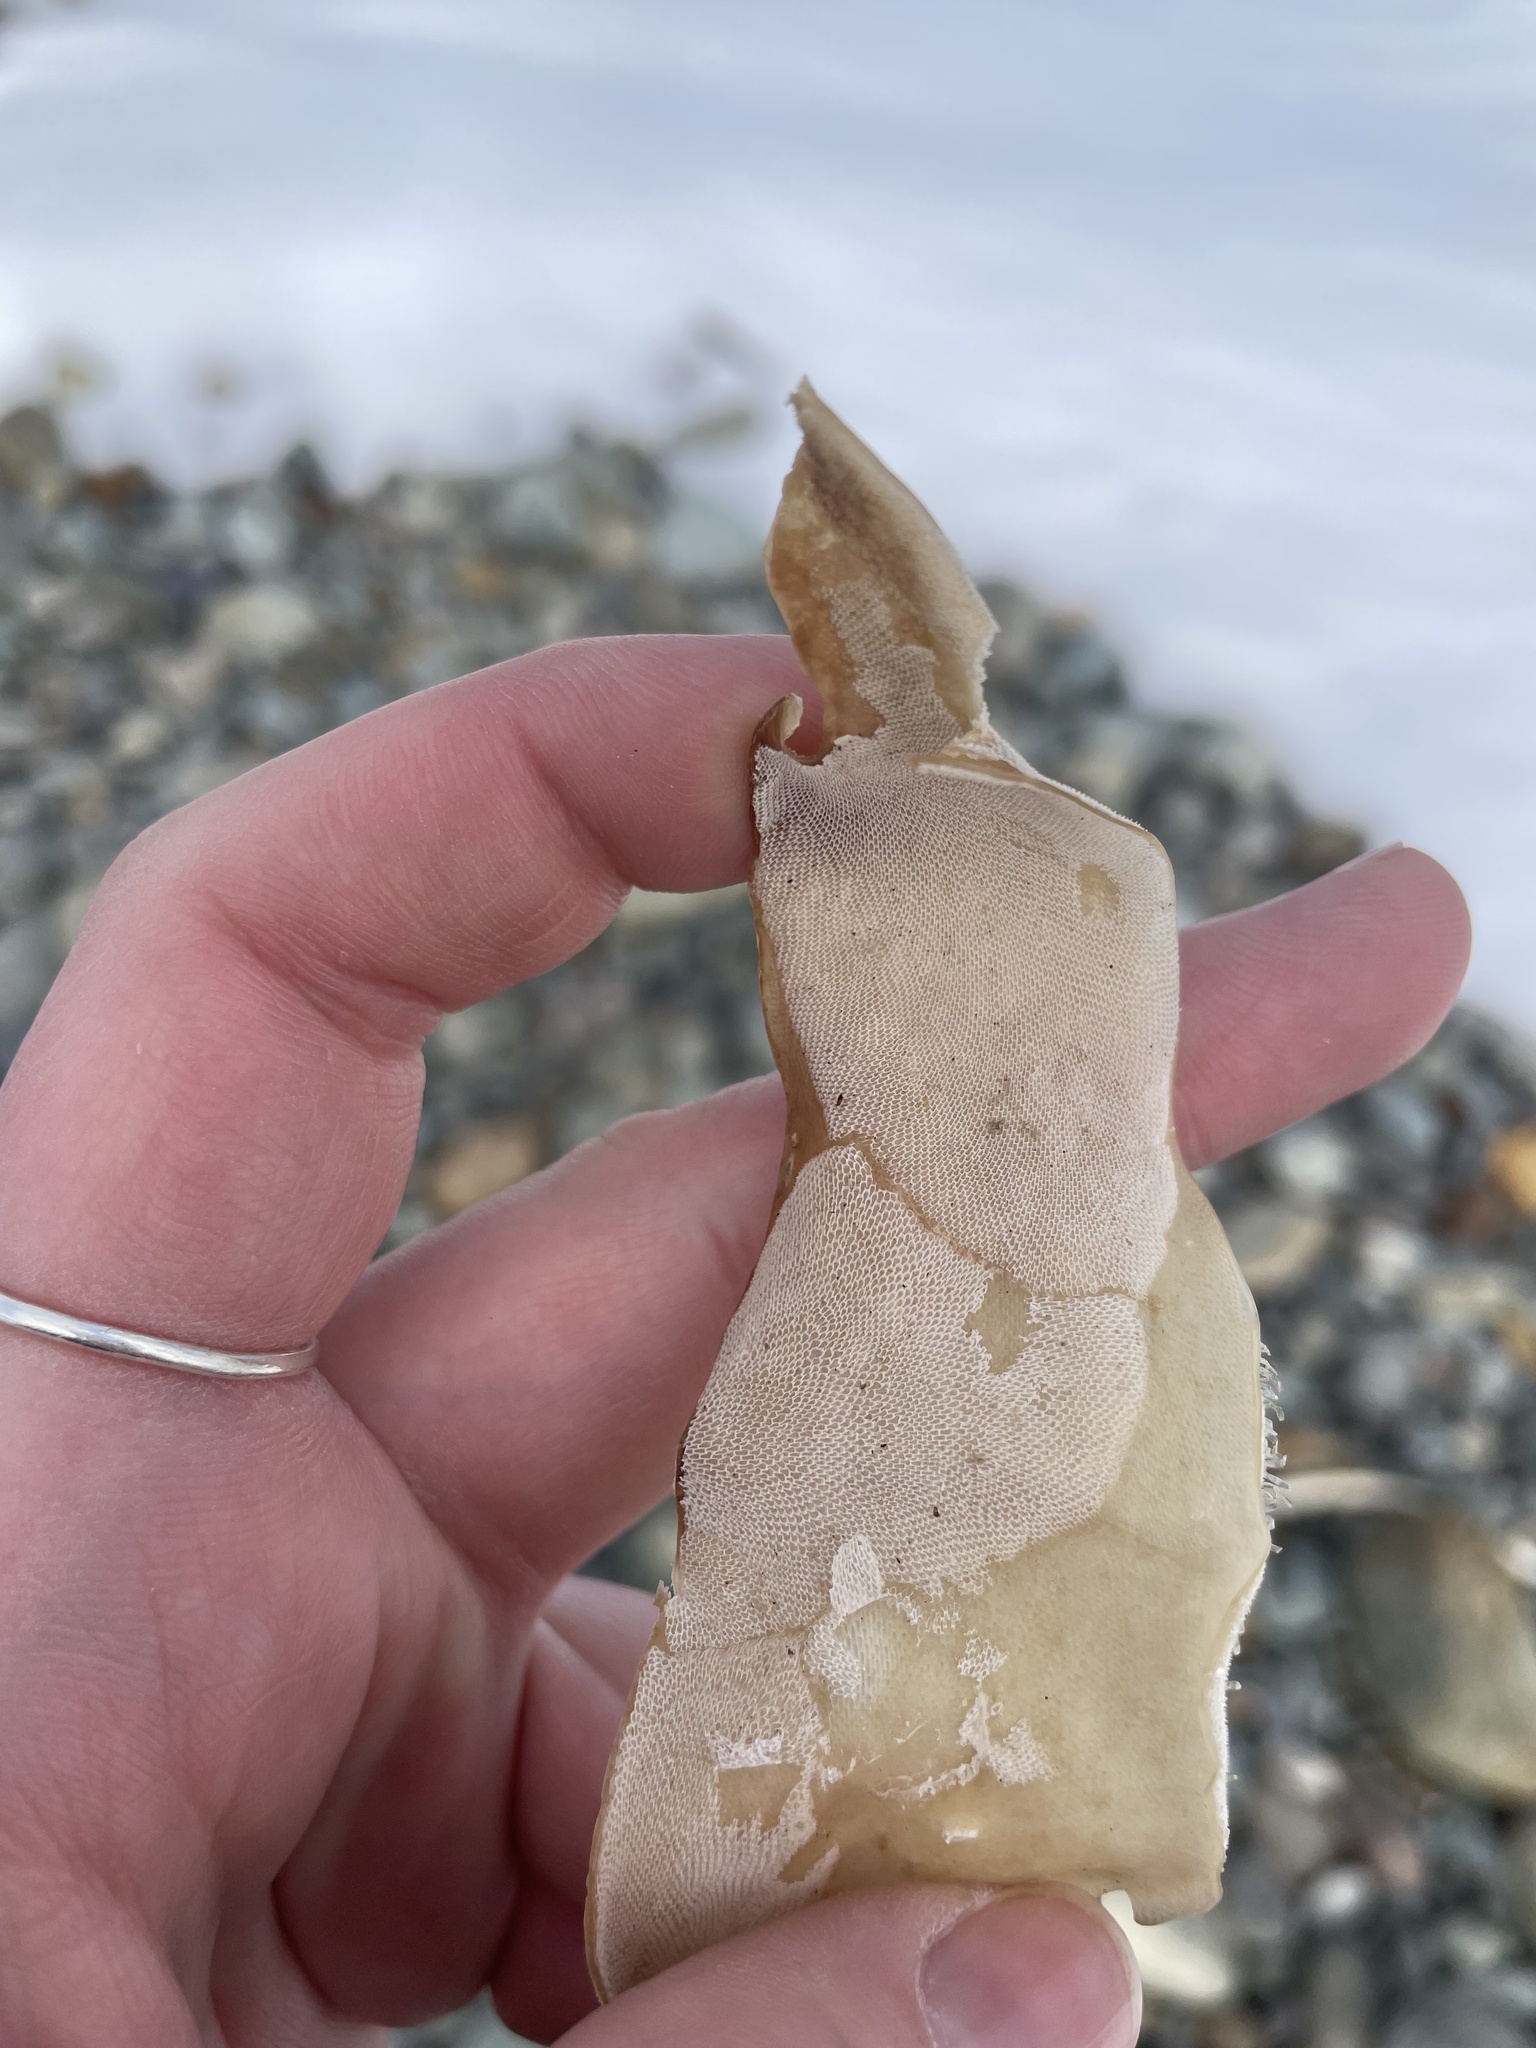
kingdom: Animalia
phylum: Bryozoa
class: Gymnolaemata
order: Cheilostomatida
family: Membraniporidae
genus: Membranipora
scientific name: Membranipora membranacea
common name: Sea mat
